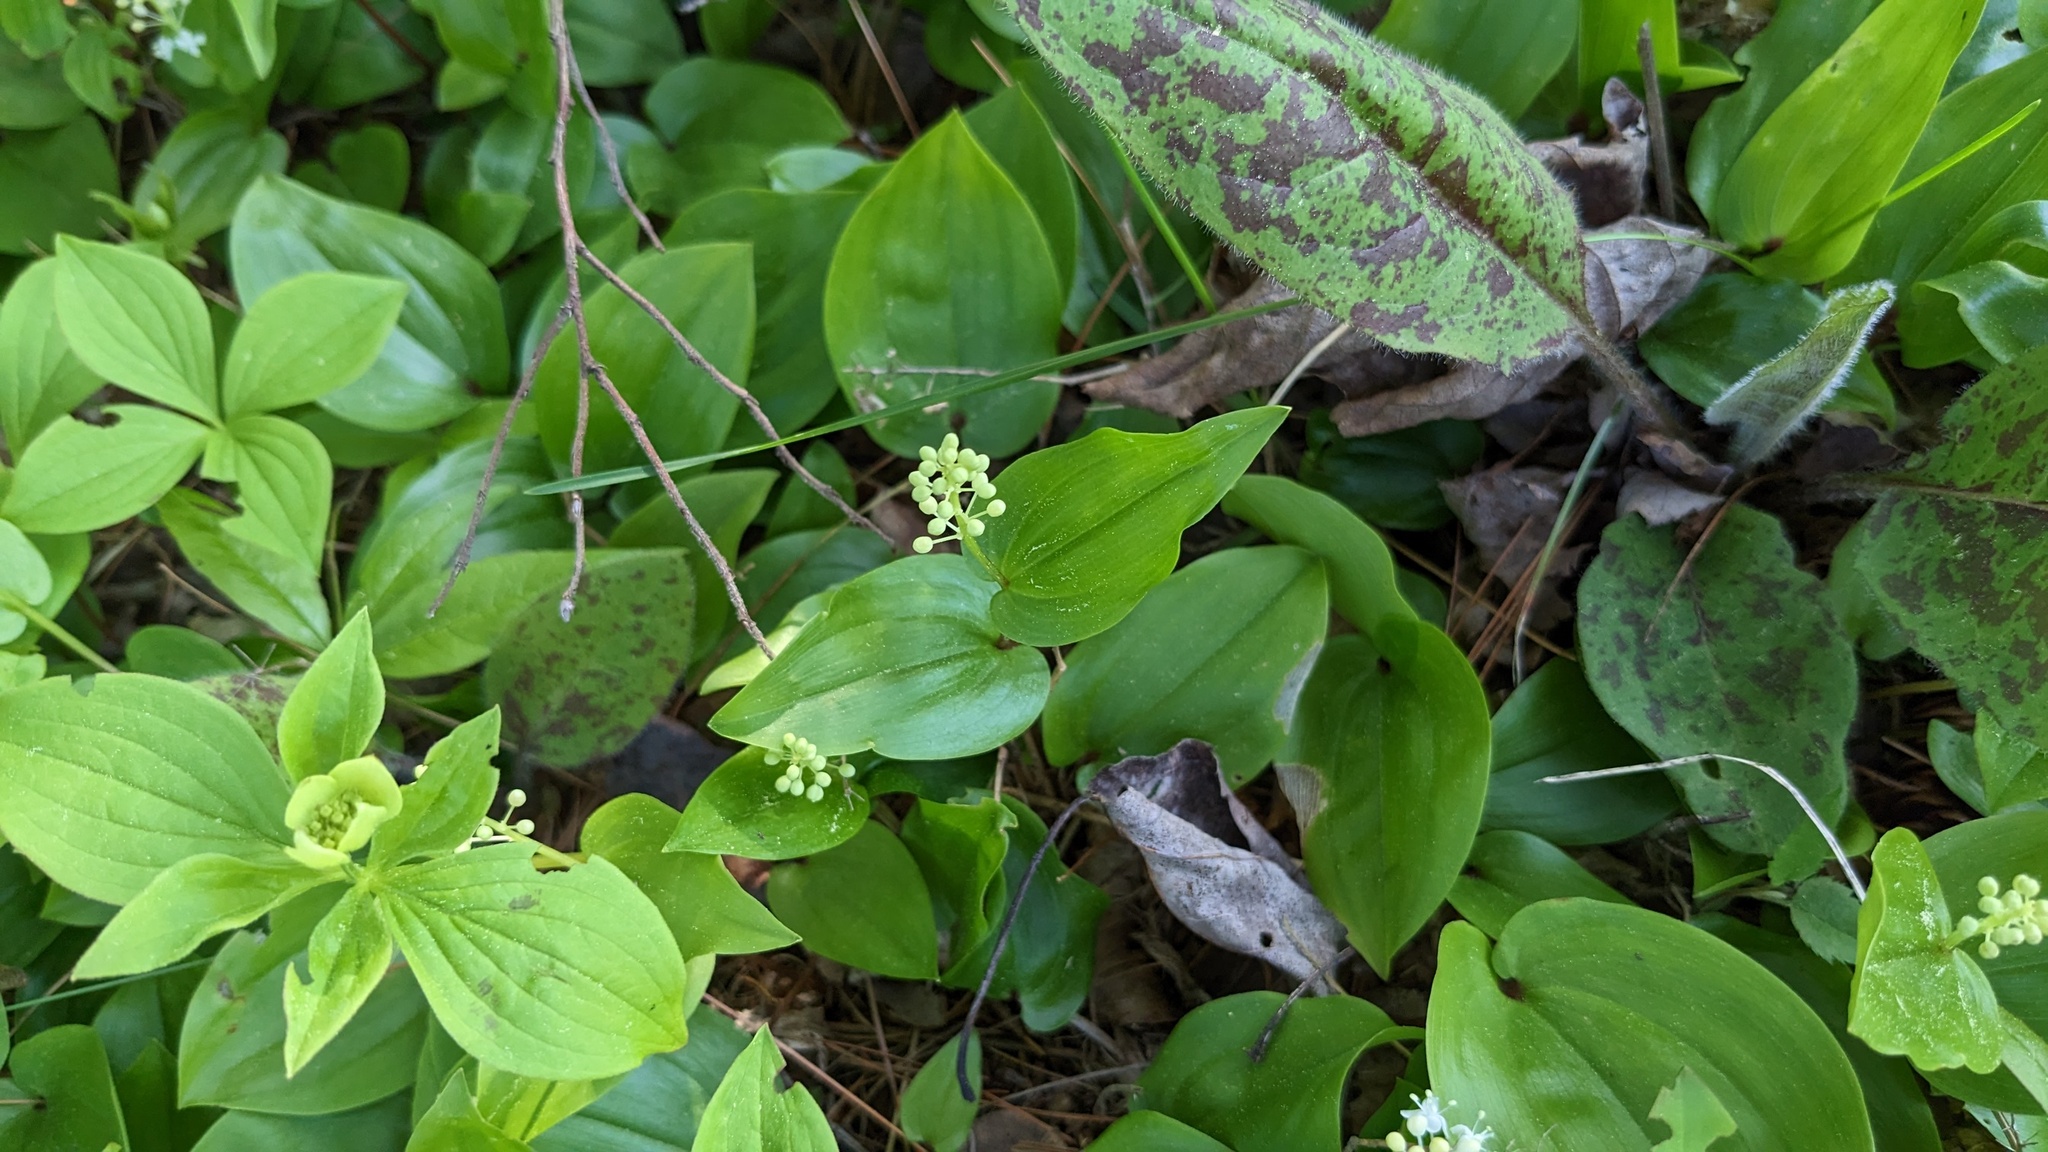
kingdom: Plantae
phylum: Tracheophyta
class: Liliopsida
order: Asparagales
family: Asparagaceae
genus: Maianthemum
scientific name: Maianthemum canadense
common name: False lily-of-the-valley
